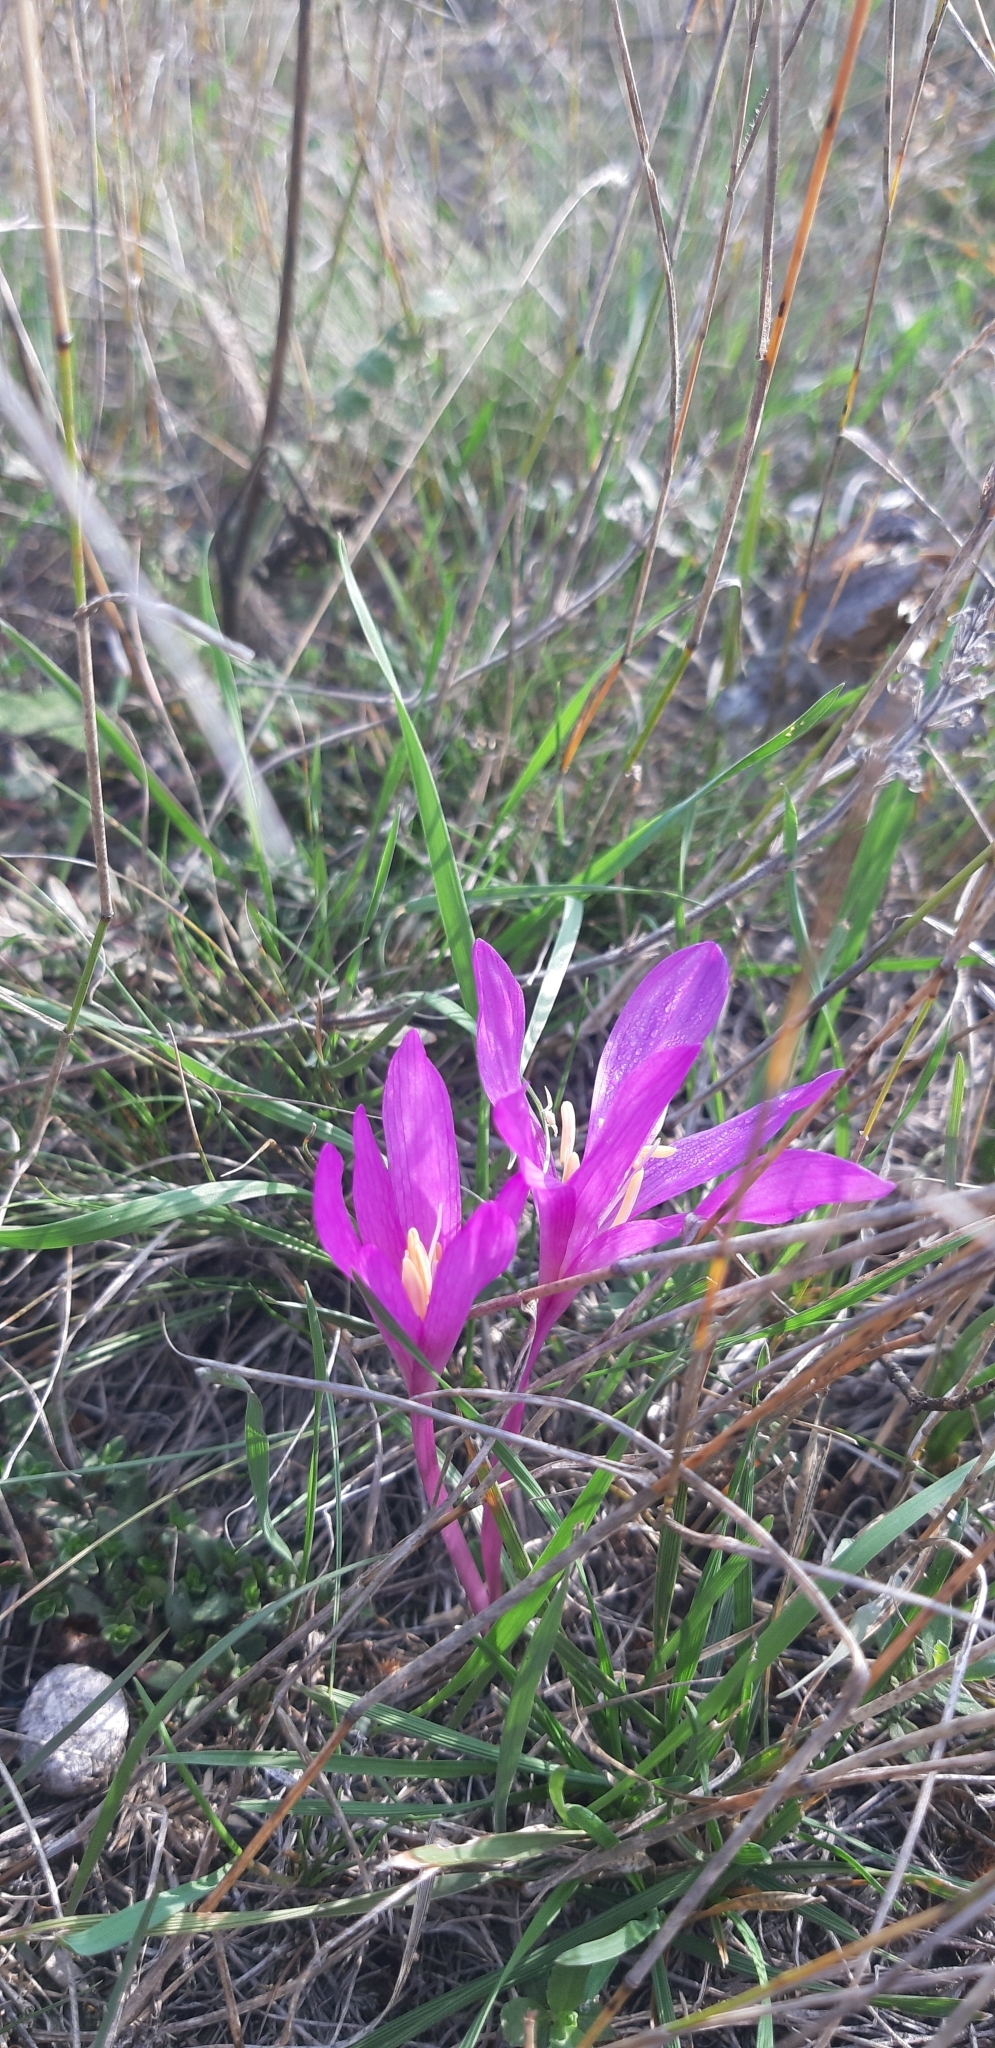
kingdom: Plantae
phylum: Tracheophyta
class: Liliopsida
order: Liliales
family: Colchicaceae
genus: Colchicum
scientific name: Colchicum arenarium
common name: Sand saffron
